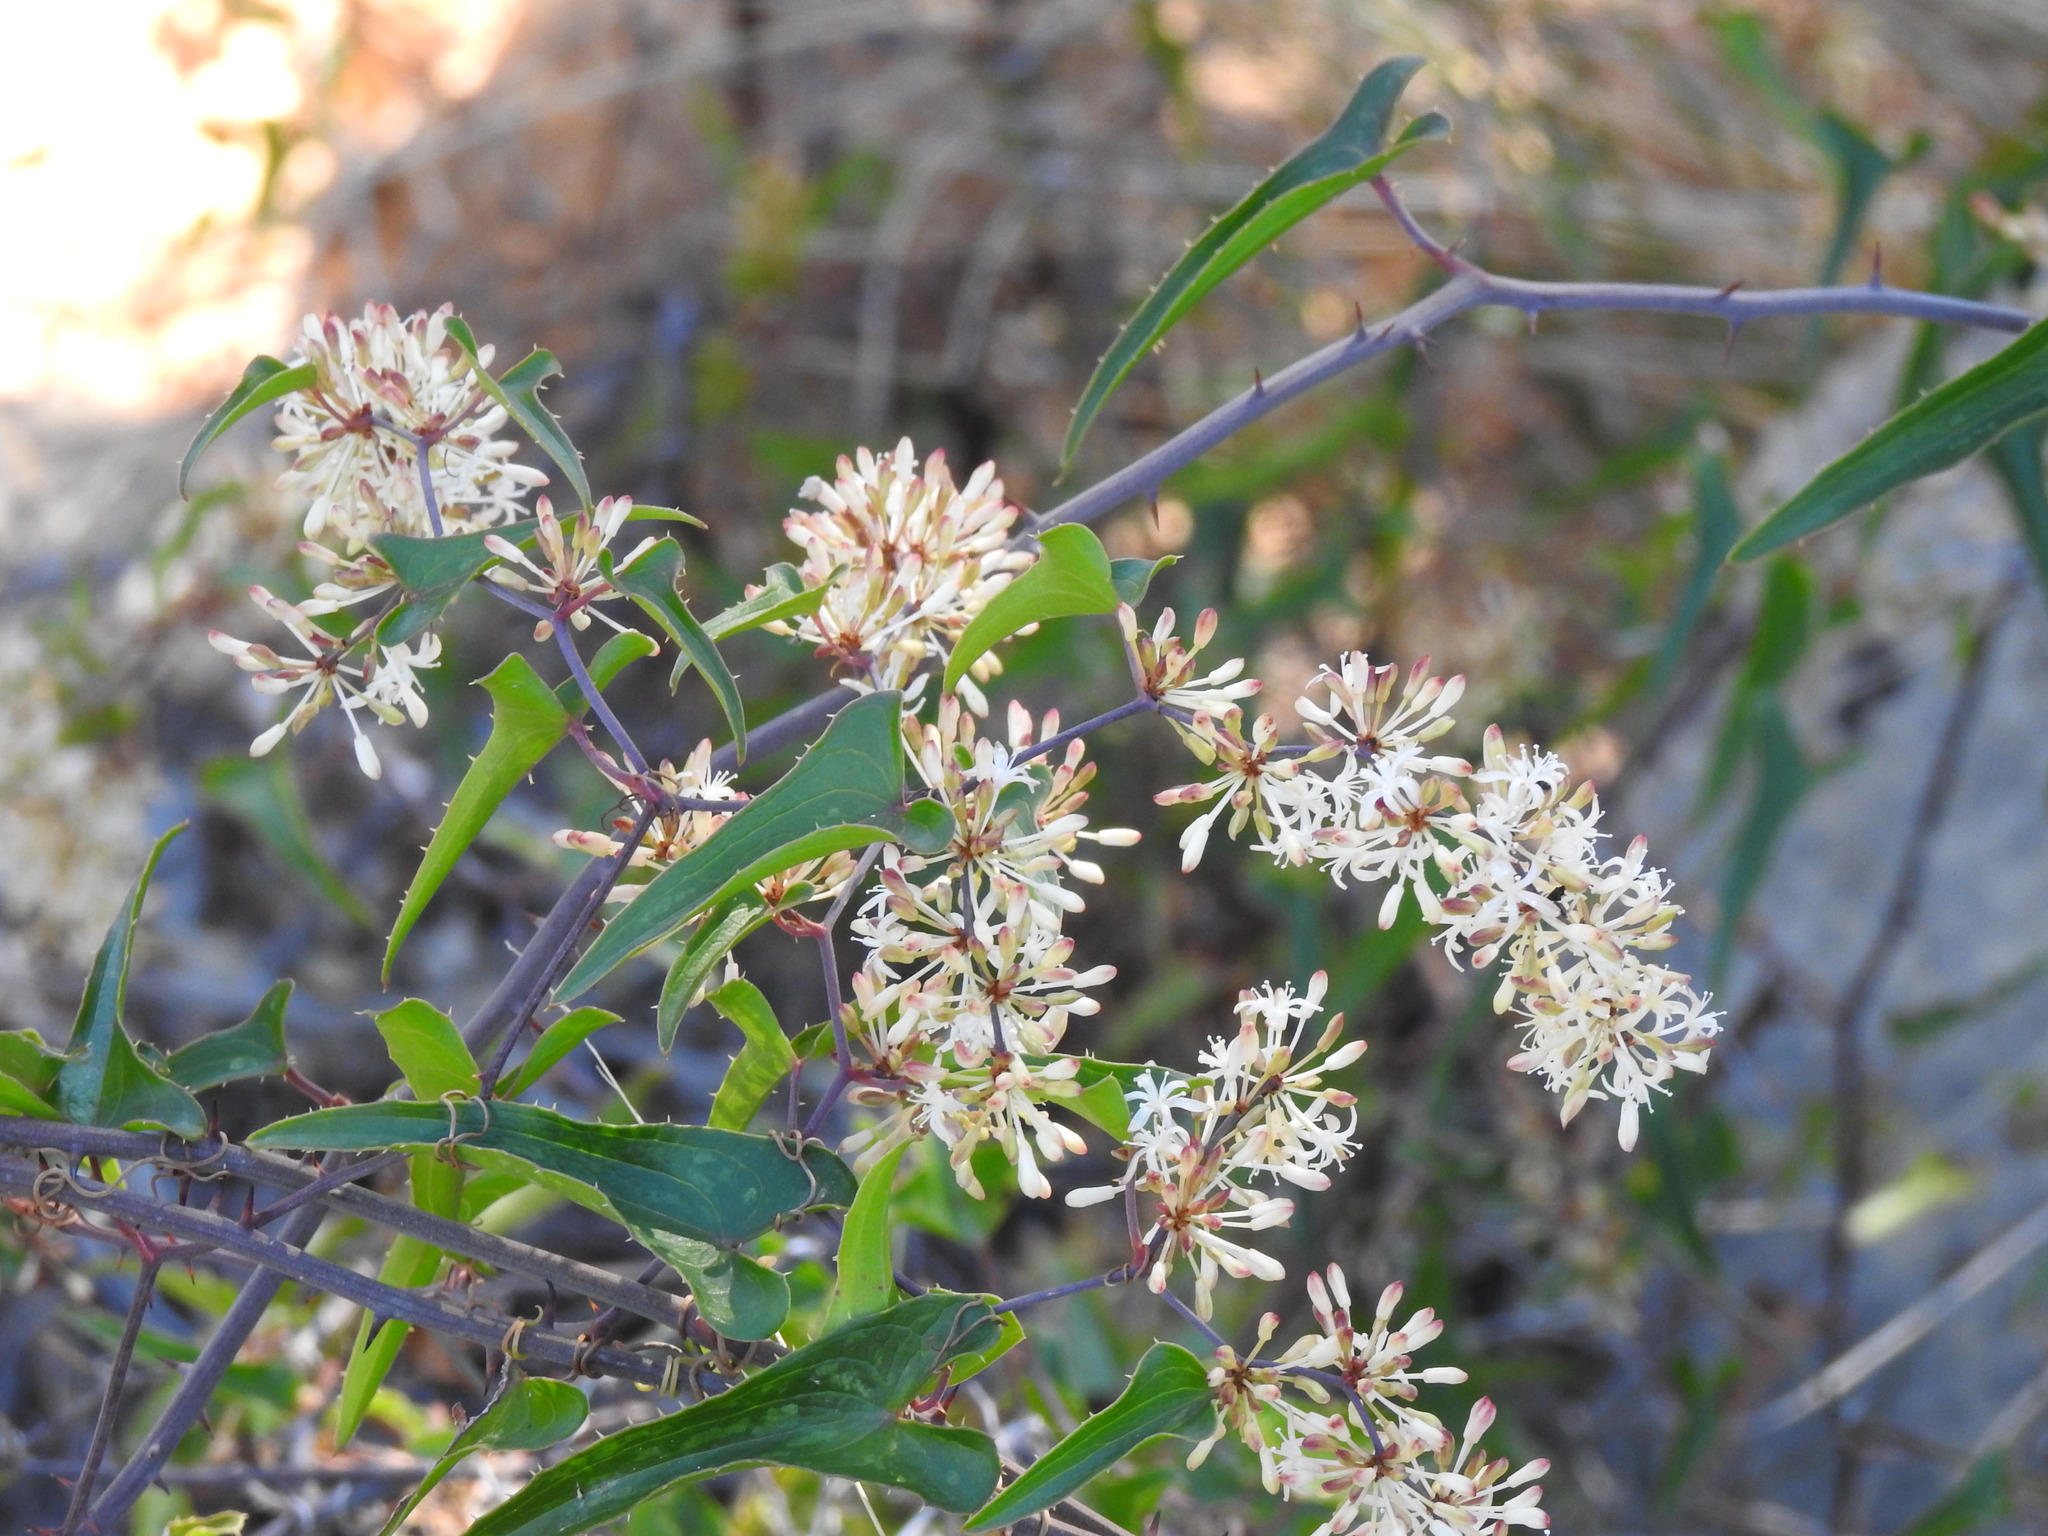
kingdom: Plantae
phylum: Tracheophyta
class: Liliopsida
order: Liliales
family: Smilacaceae
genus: Smilax
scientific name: Smilax aspera
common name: Common smilax
